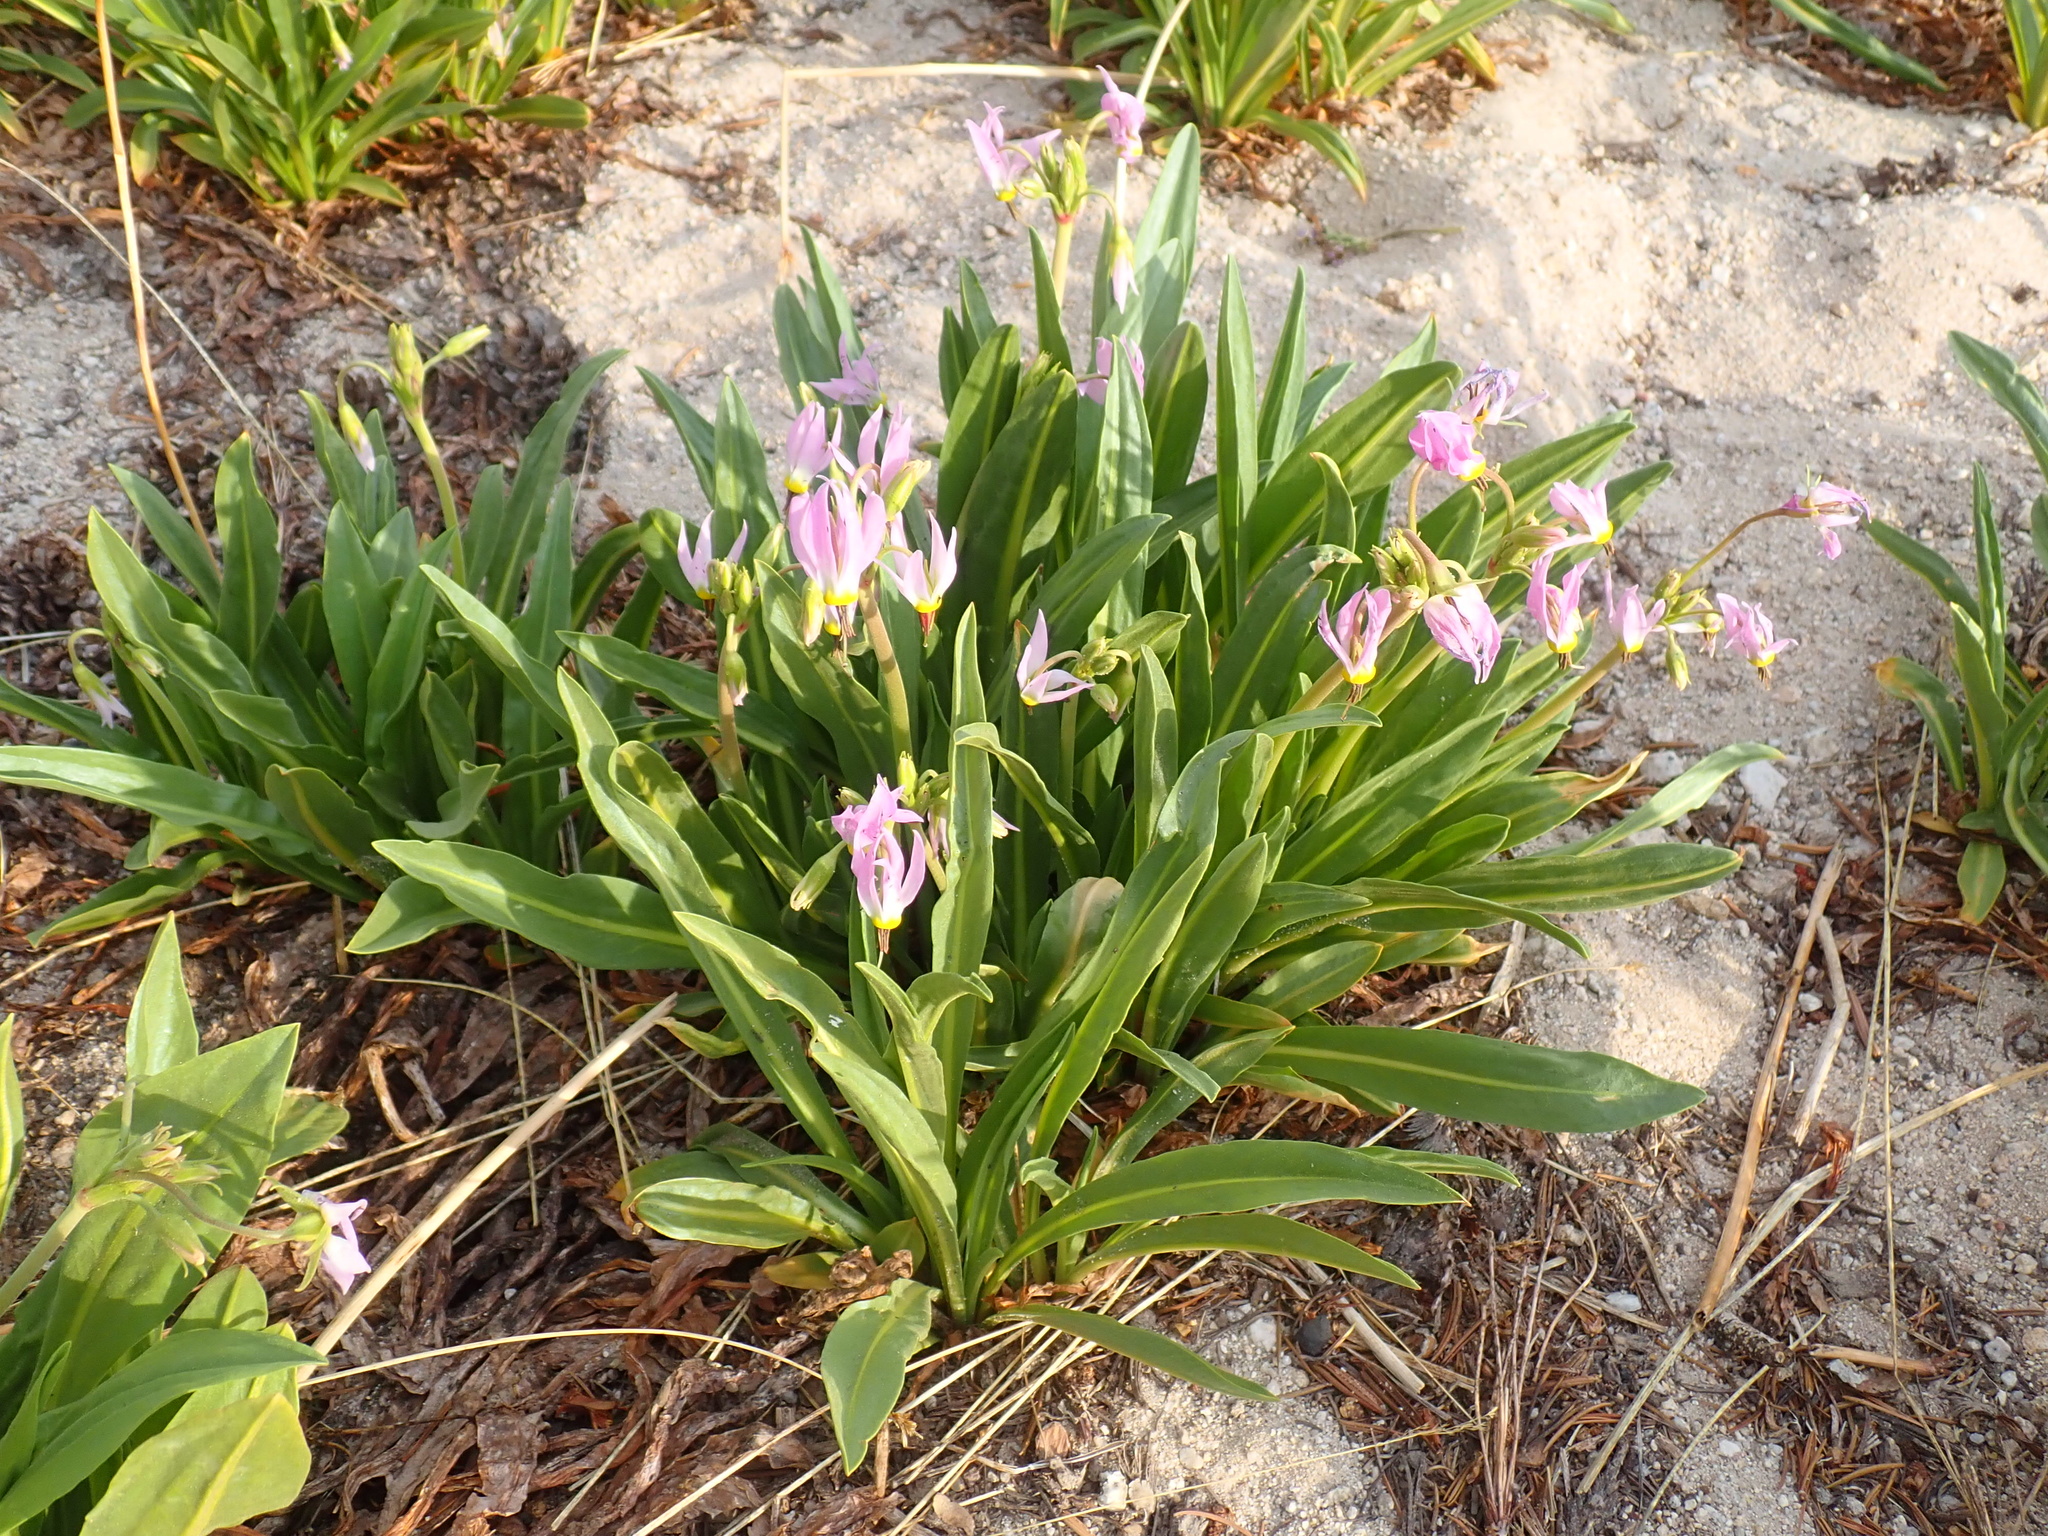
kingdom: Plantae
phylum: Tracheophyta
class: Magnoliopsida
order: Ericales
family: Primulaceae
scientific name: Primulaceae
